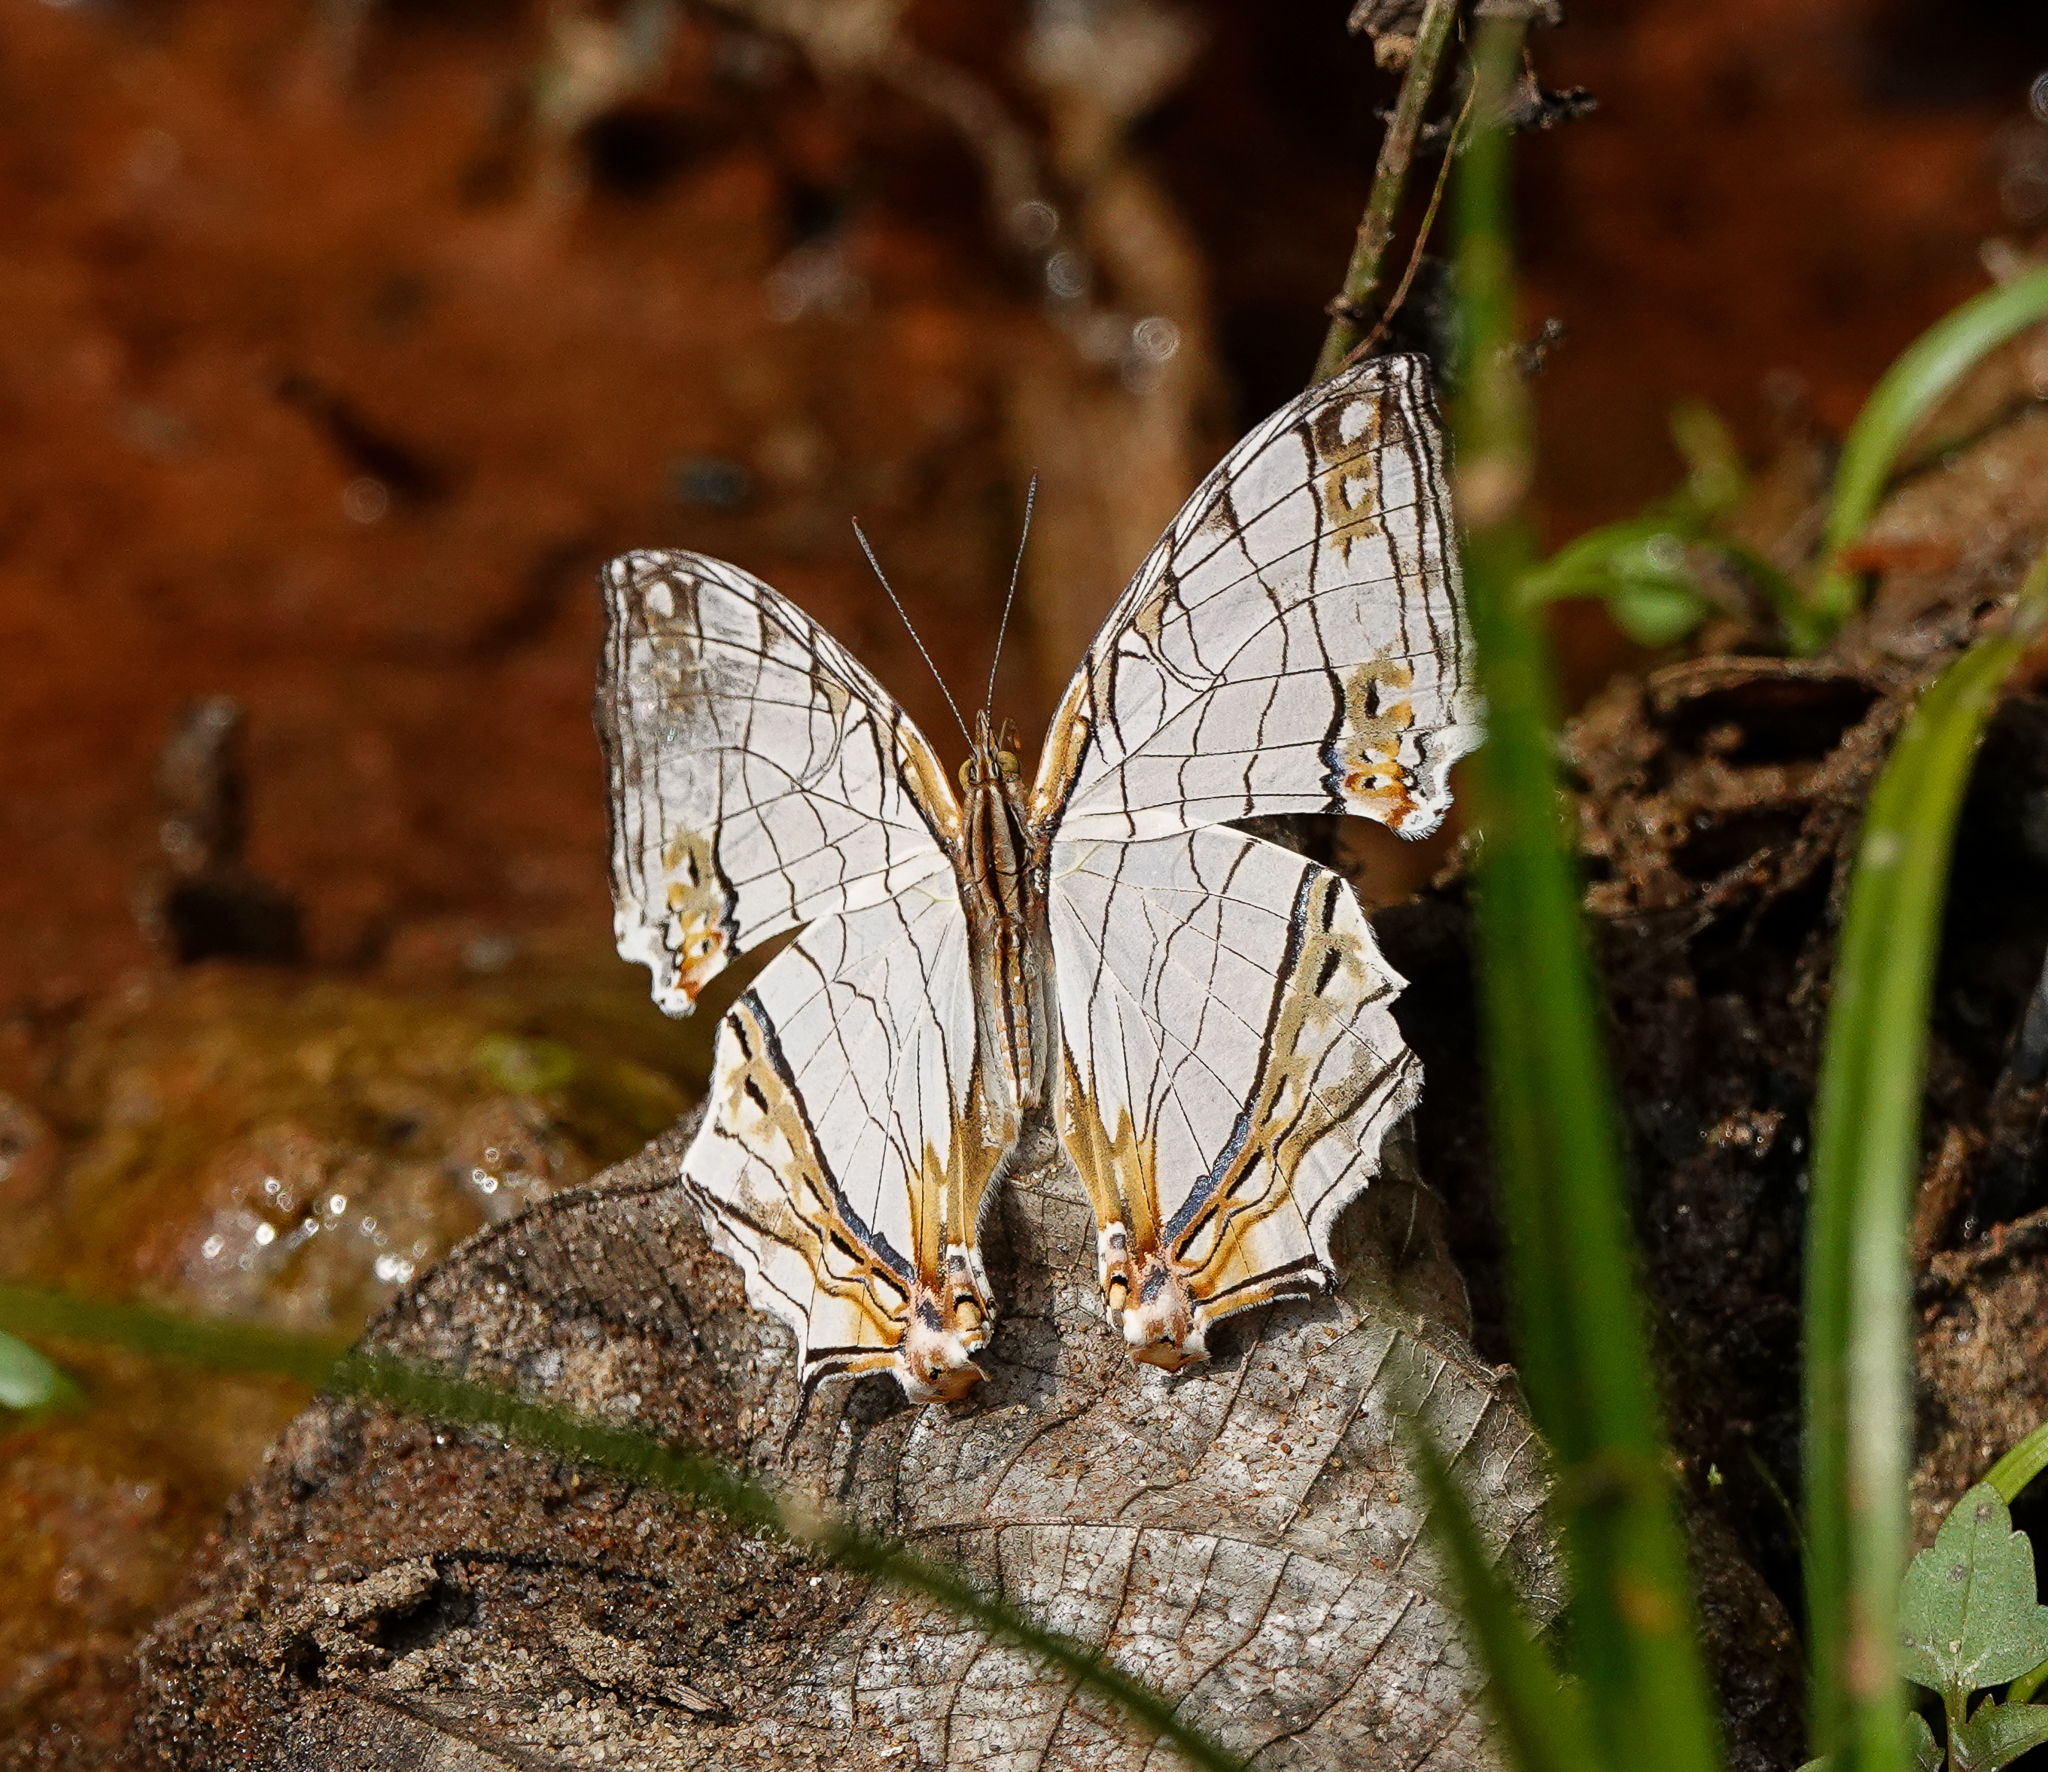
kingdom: Animalia
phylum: Arthropoda
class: Insecta
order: Lepidoptera
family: Nymphalidae
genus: Cyrestis
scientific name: Cyrestis thyodamas
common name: Common mapwing
